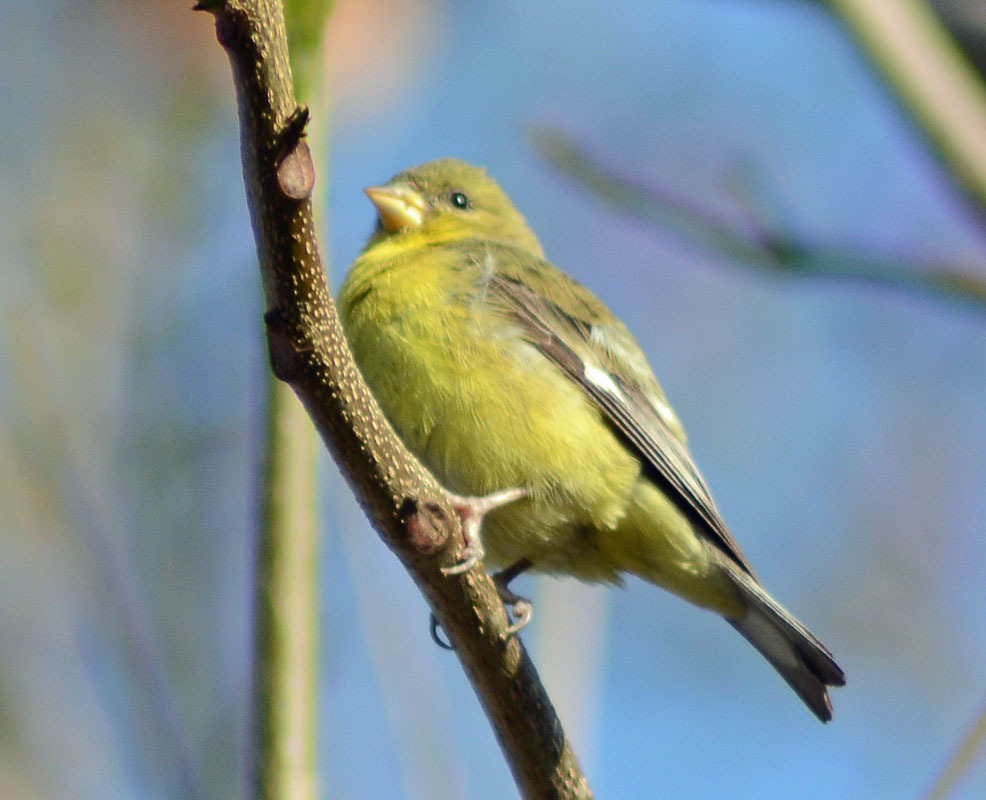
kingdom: Animalia
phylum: Chordata
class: Aves
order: Passeriformes
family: Fringillidae
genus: Spinus
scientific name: Spinus psaltria
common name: Lesser goldfinch
